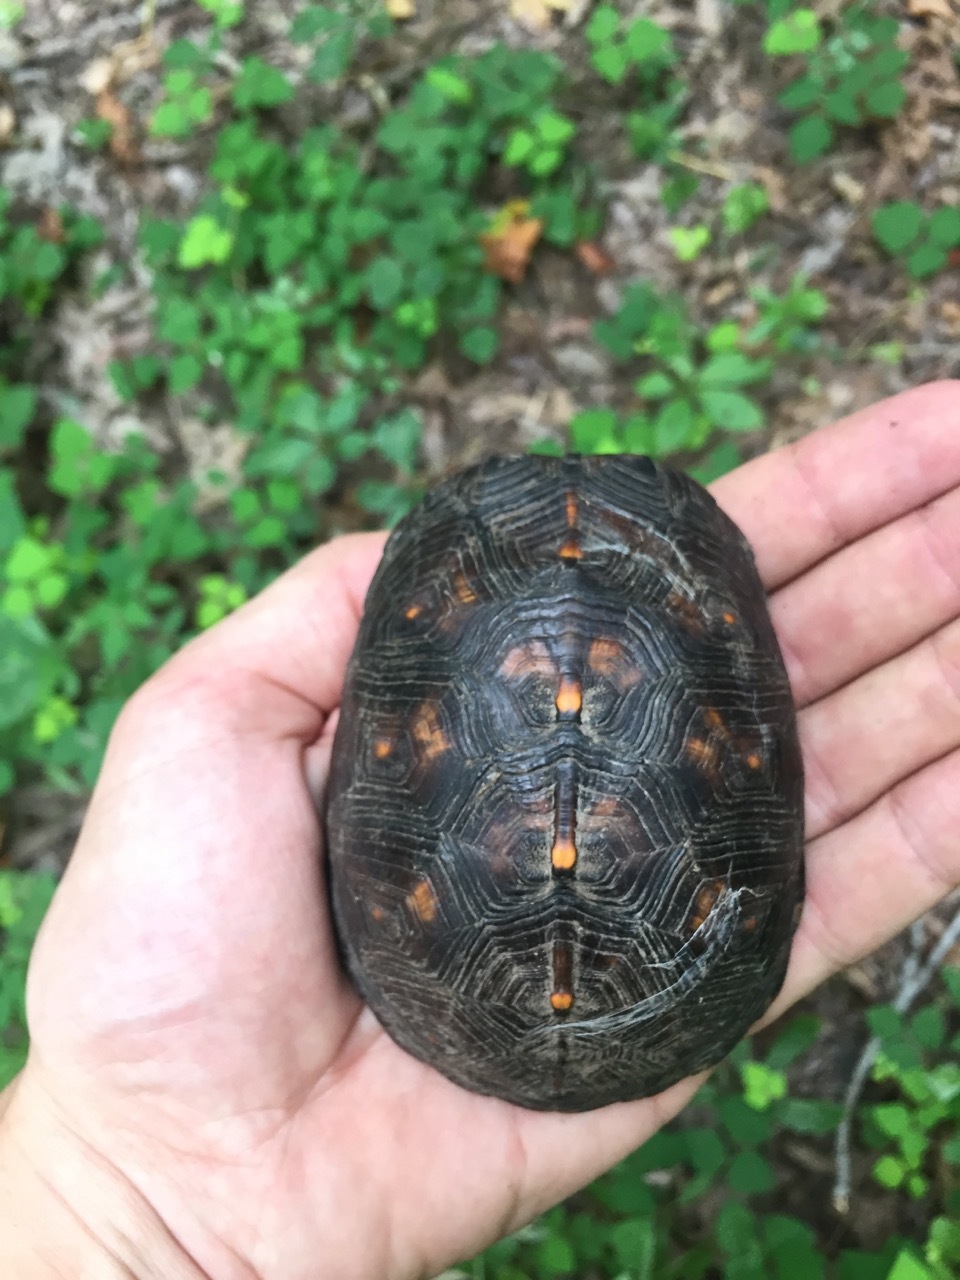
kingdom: Animalia
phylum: Chordata
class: Testudines
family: Emydidae
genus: Terrapene
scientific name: Terrapene carolina
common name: Common box turtle
